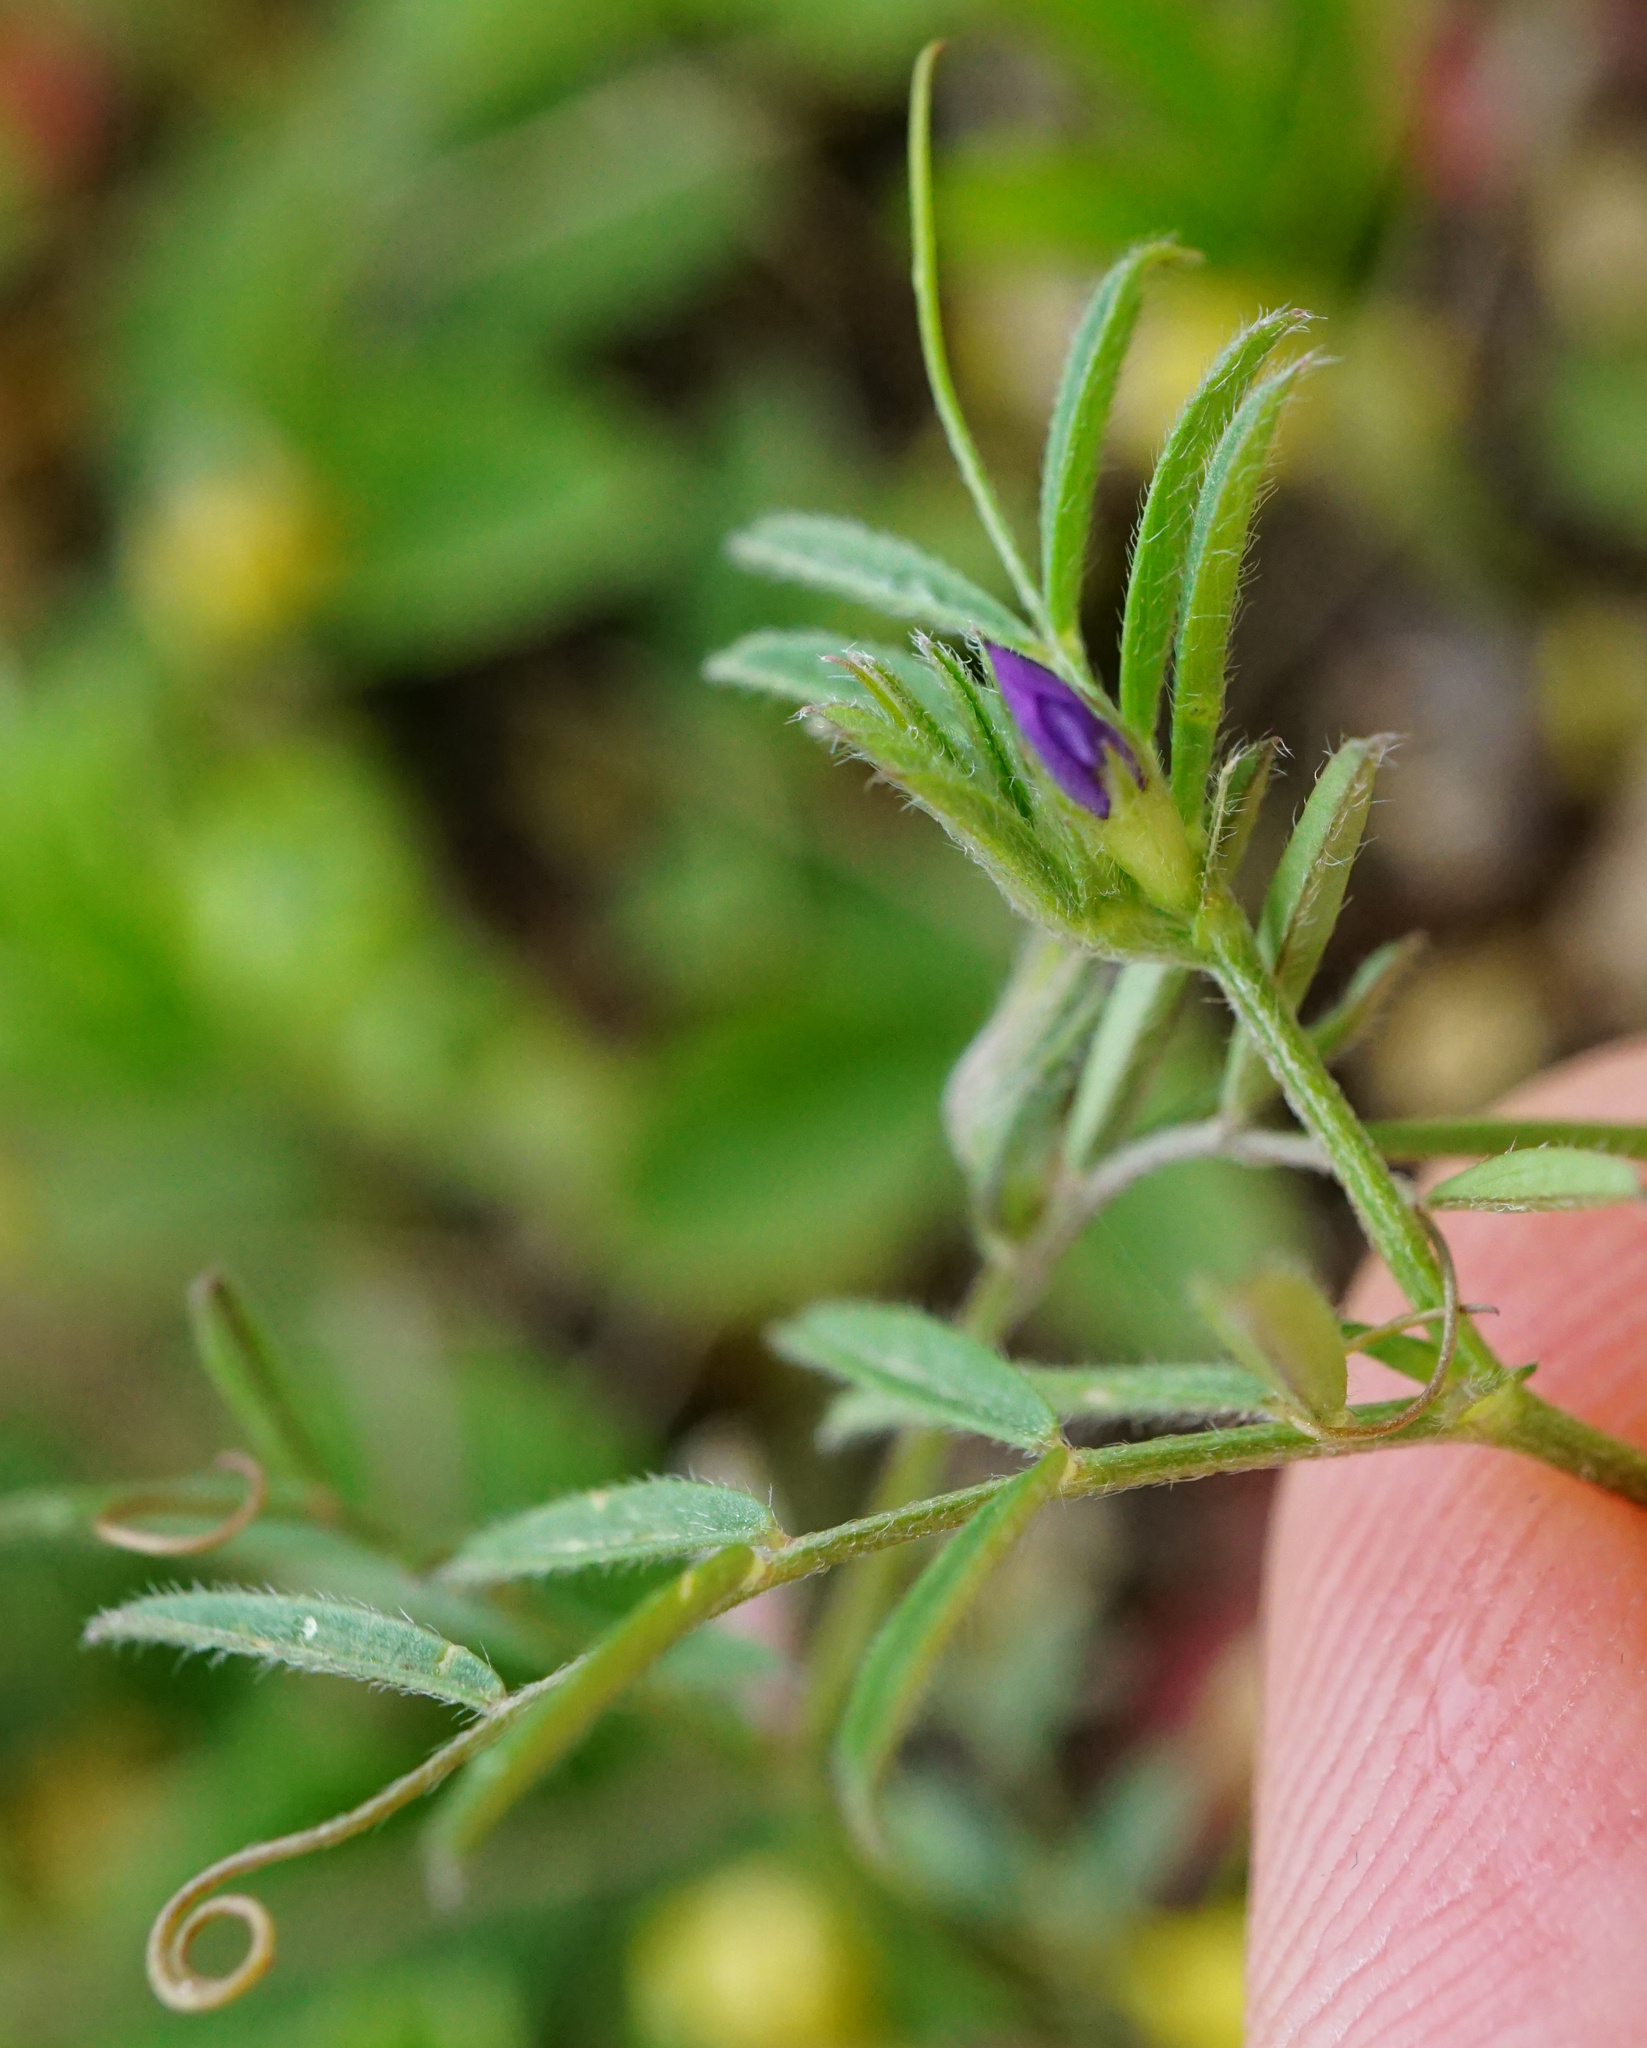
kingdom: Plantae
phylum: Tracheophyta
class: Magnoliopsida
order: Fabales
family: Fabaceae
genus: Vicia
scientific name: Vicia lathyroides
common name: Spring vetch
